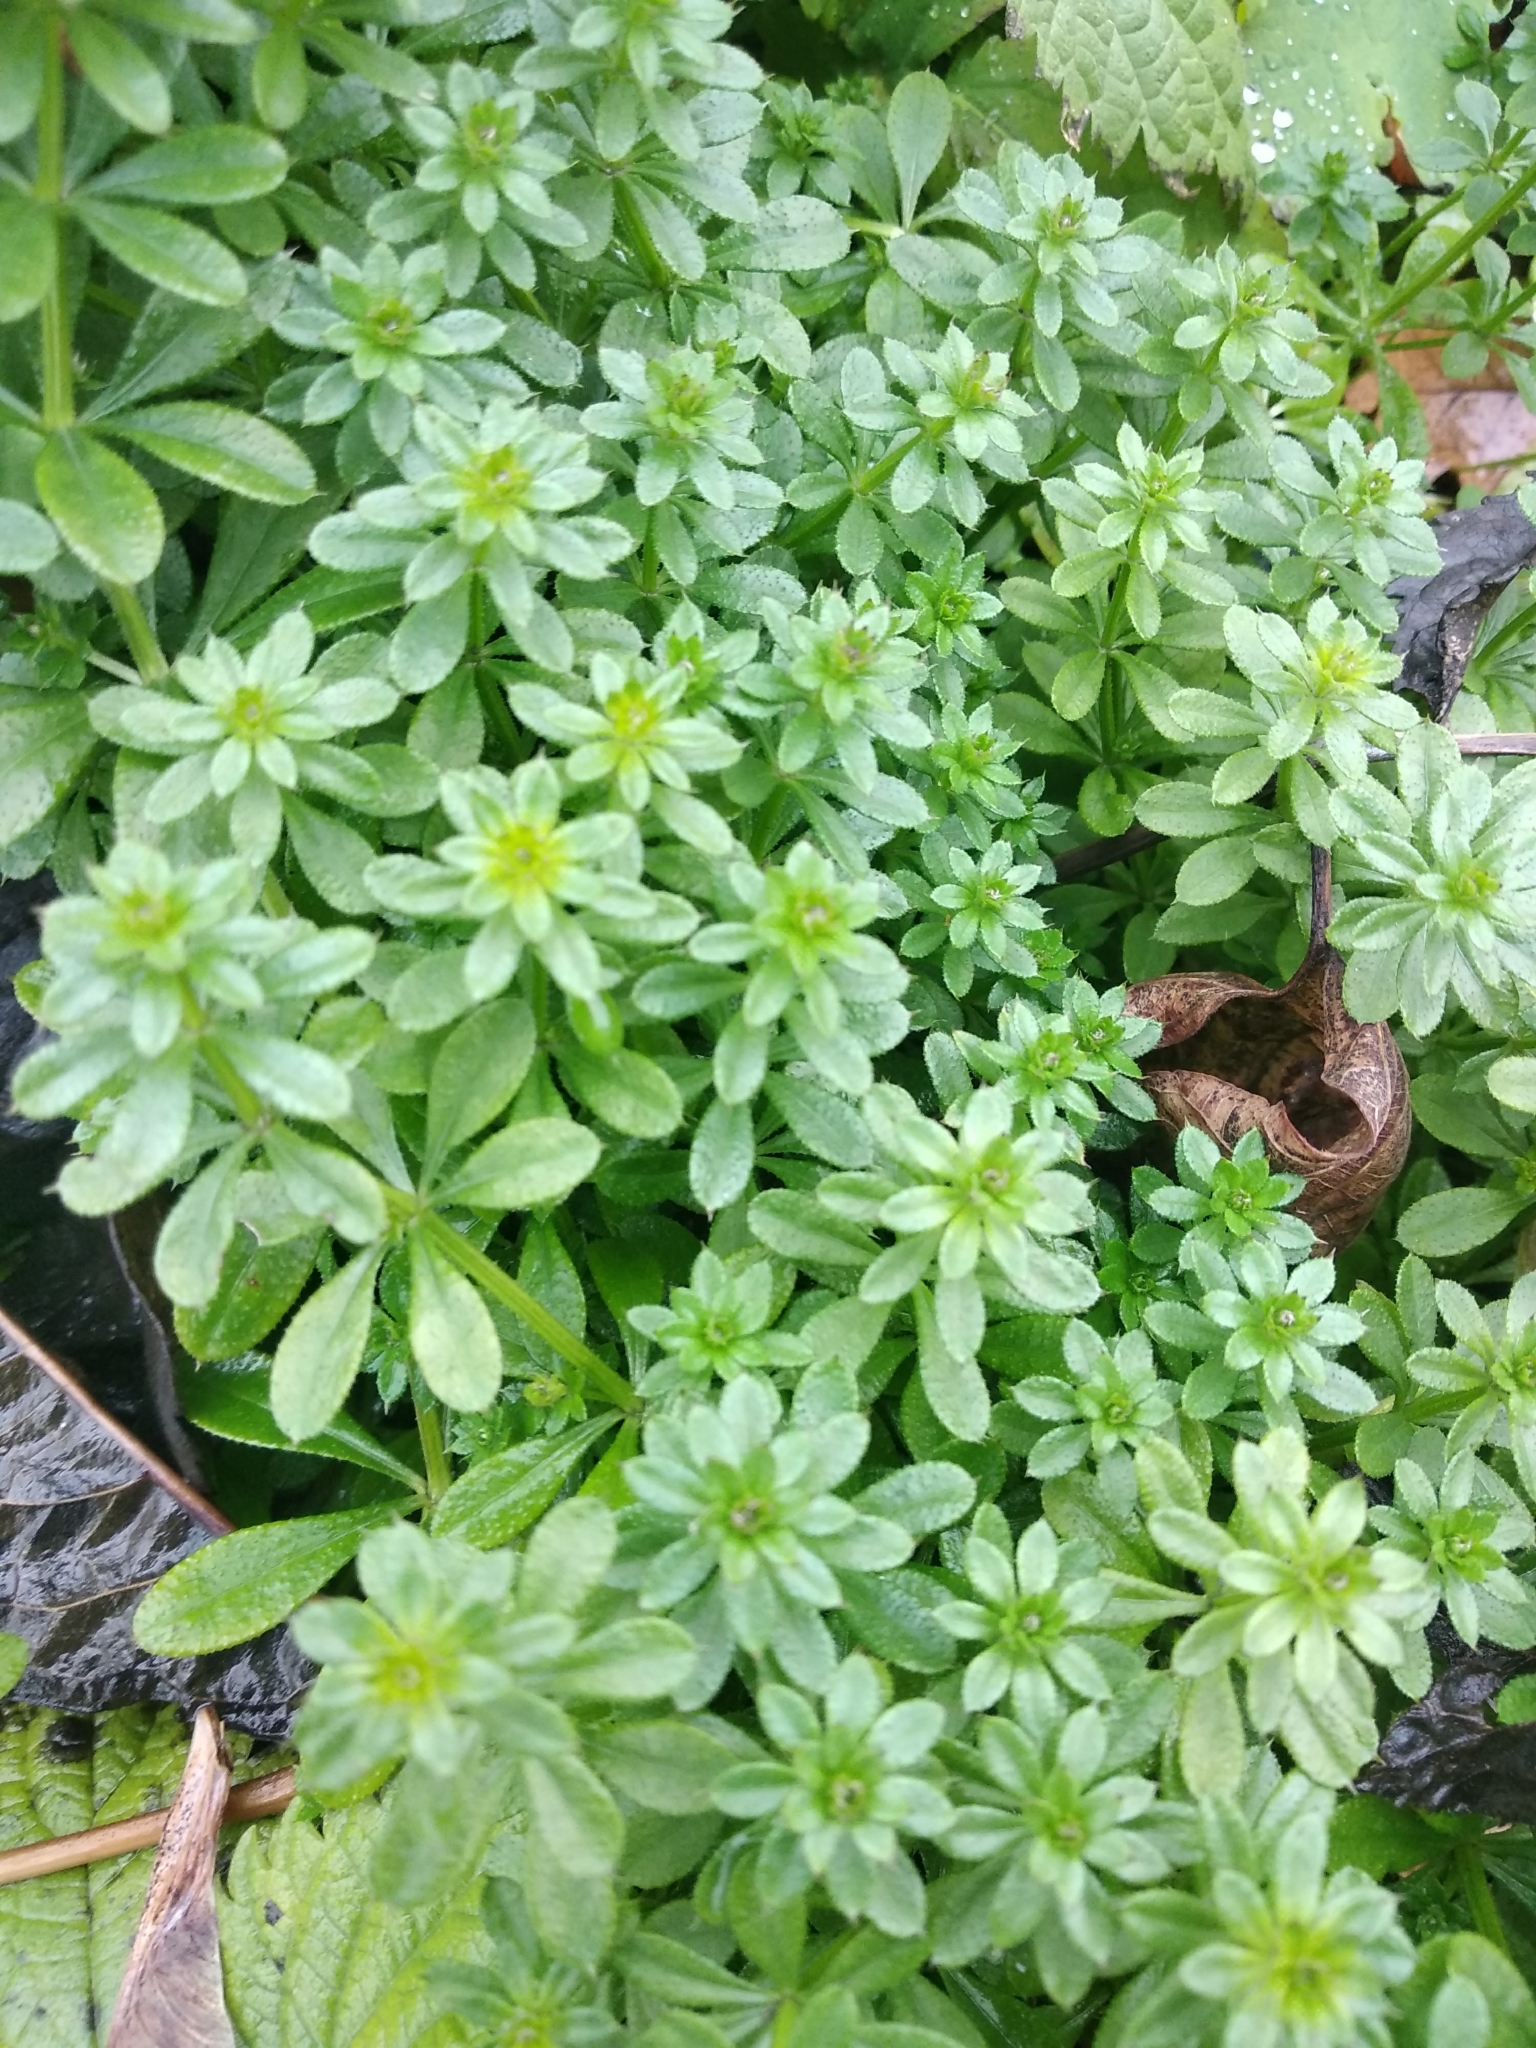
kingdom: Plantae
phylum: Tracheophyta
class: Magnoliopsida
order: Gentianales
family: Rubiaceae
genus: Galium
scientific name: Galium mollugo
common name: Hedge bedstraw
